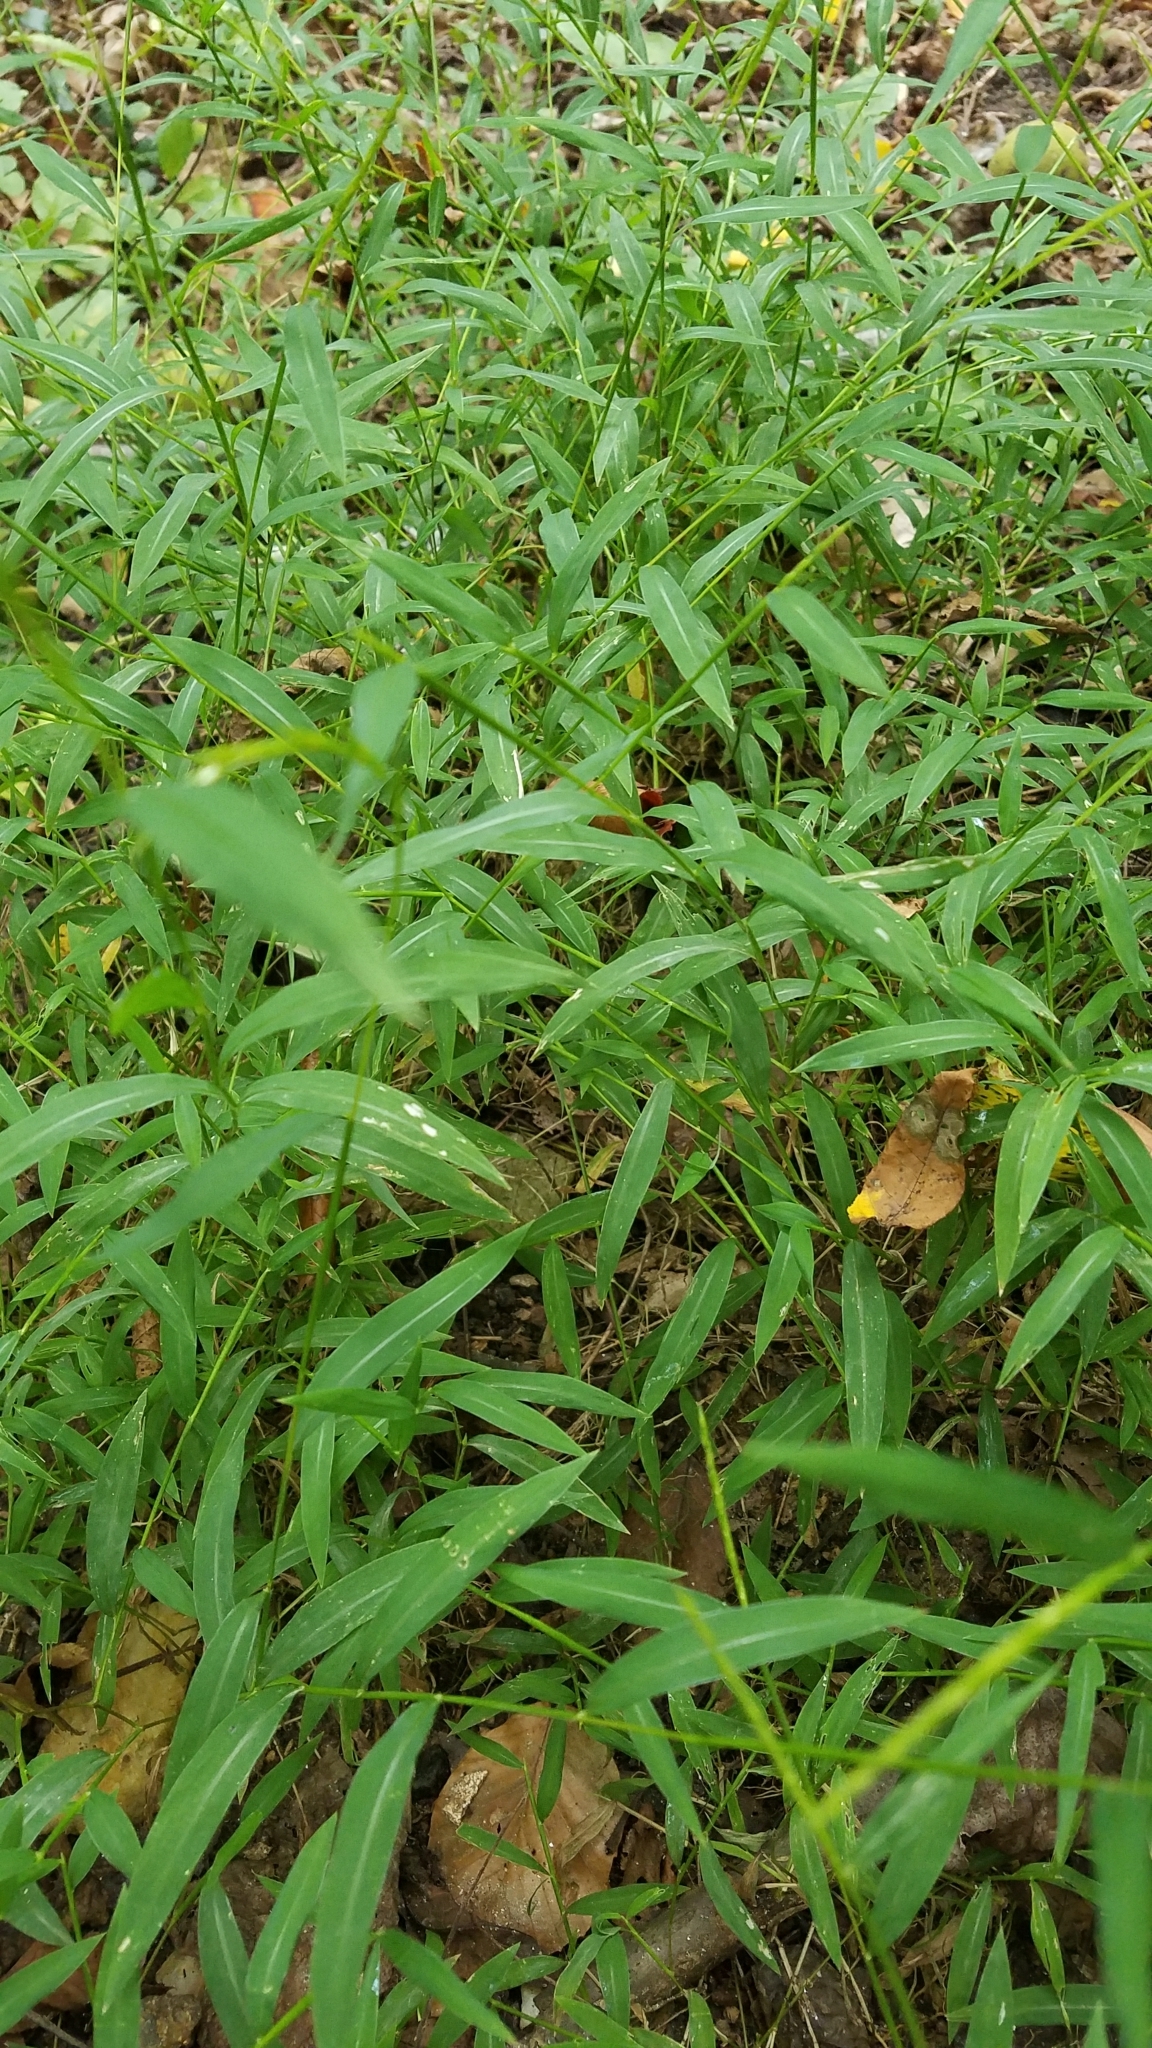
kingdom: Plantae
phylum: Tracheophyta
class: Liliopsida
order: Poales
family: Poaceae
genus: Microstegium
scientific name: Microstegium vimineum
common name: Japanese stiltgrass
